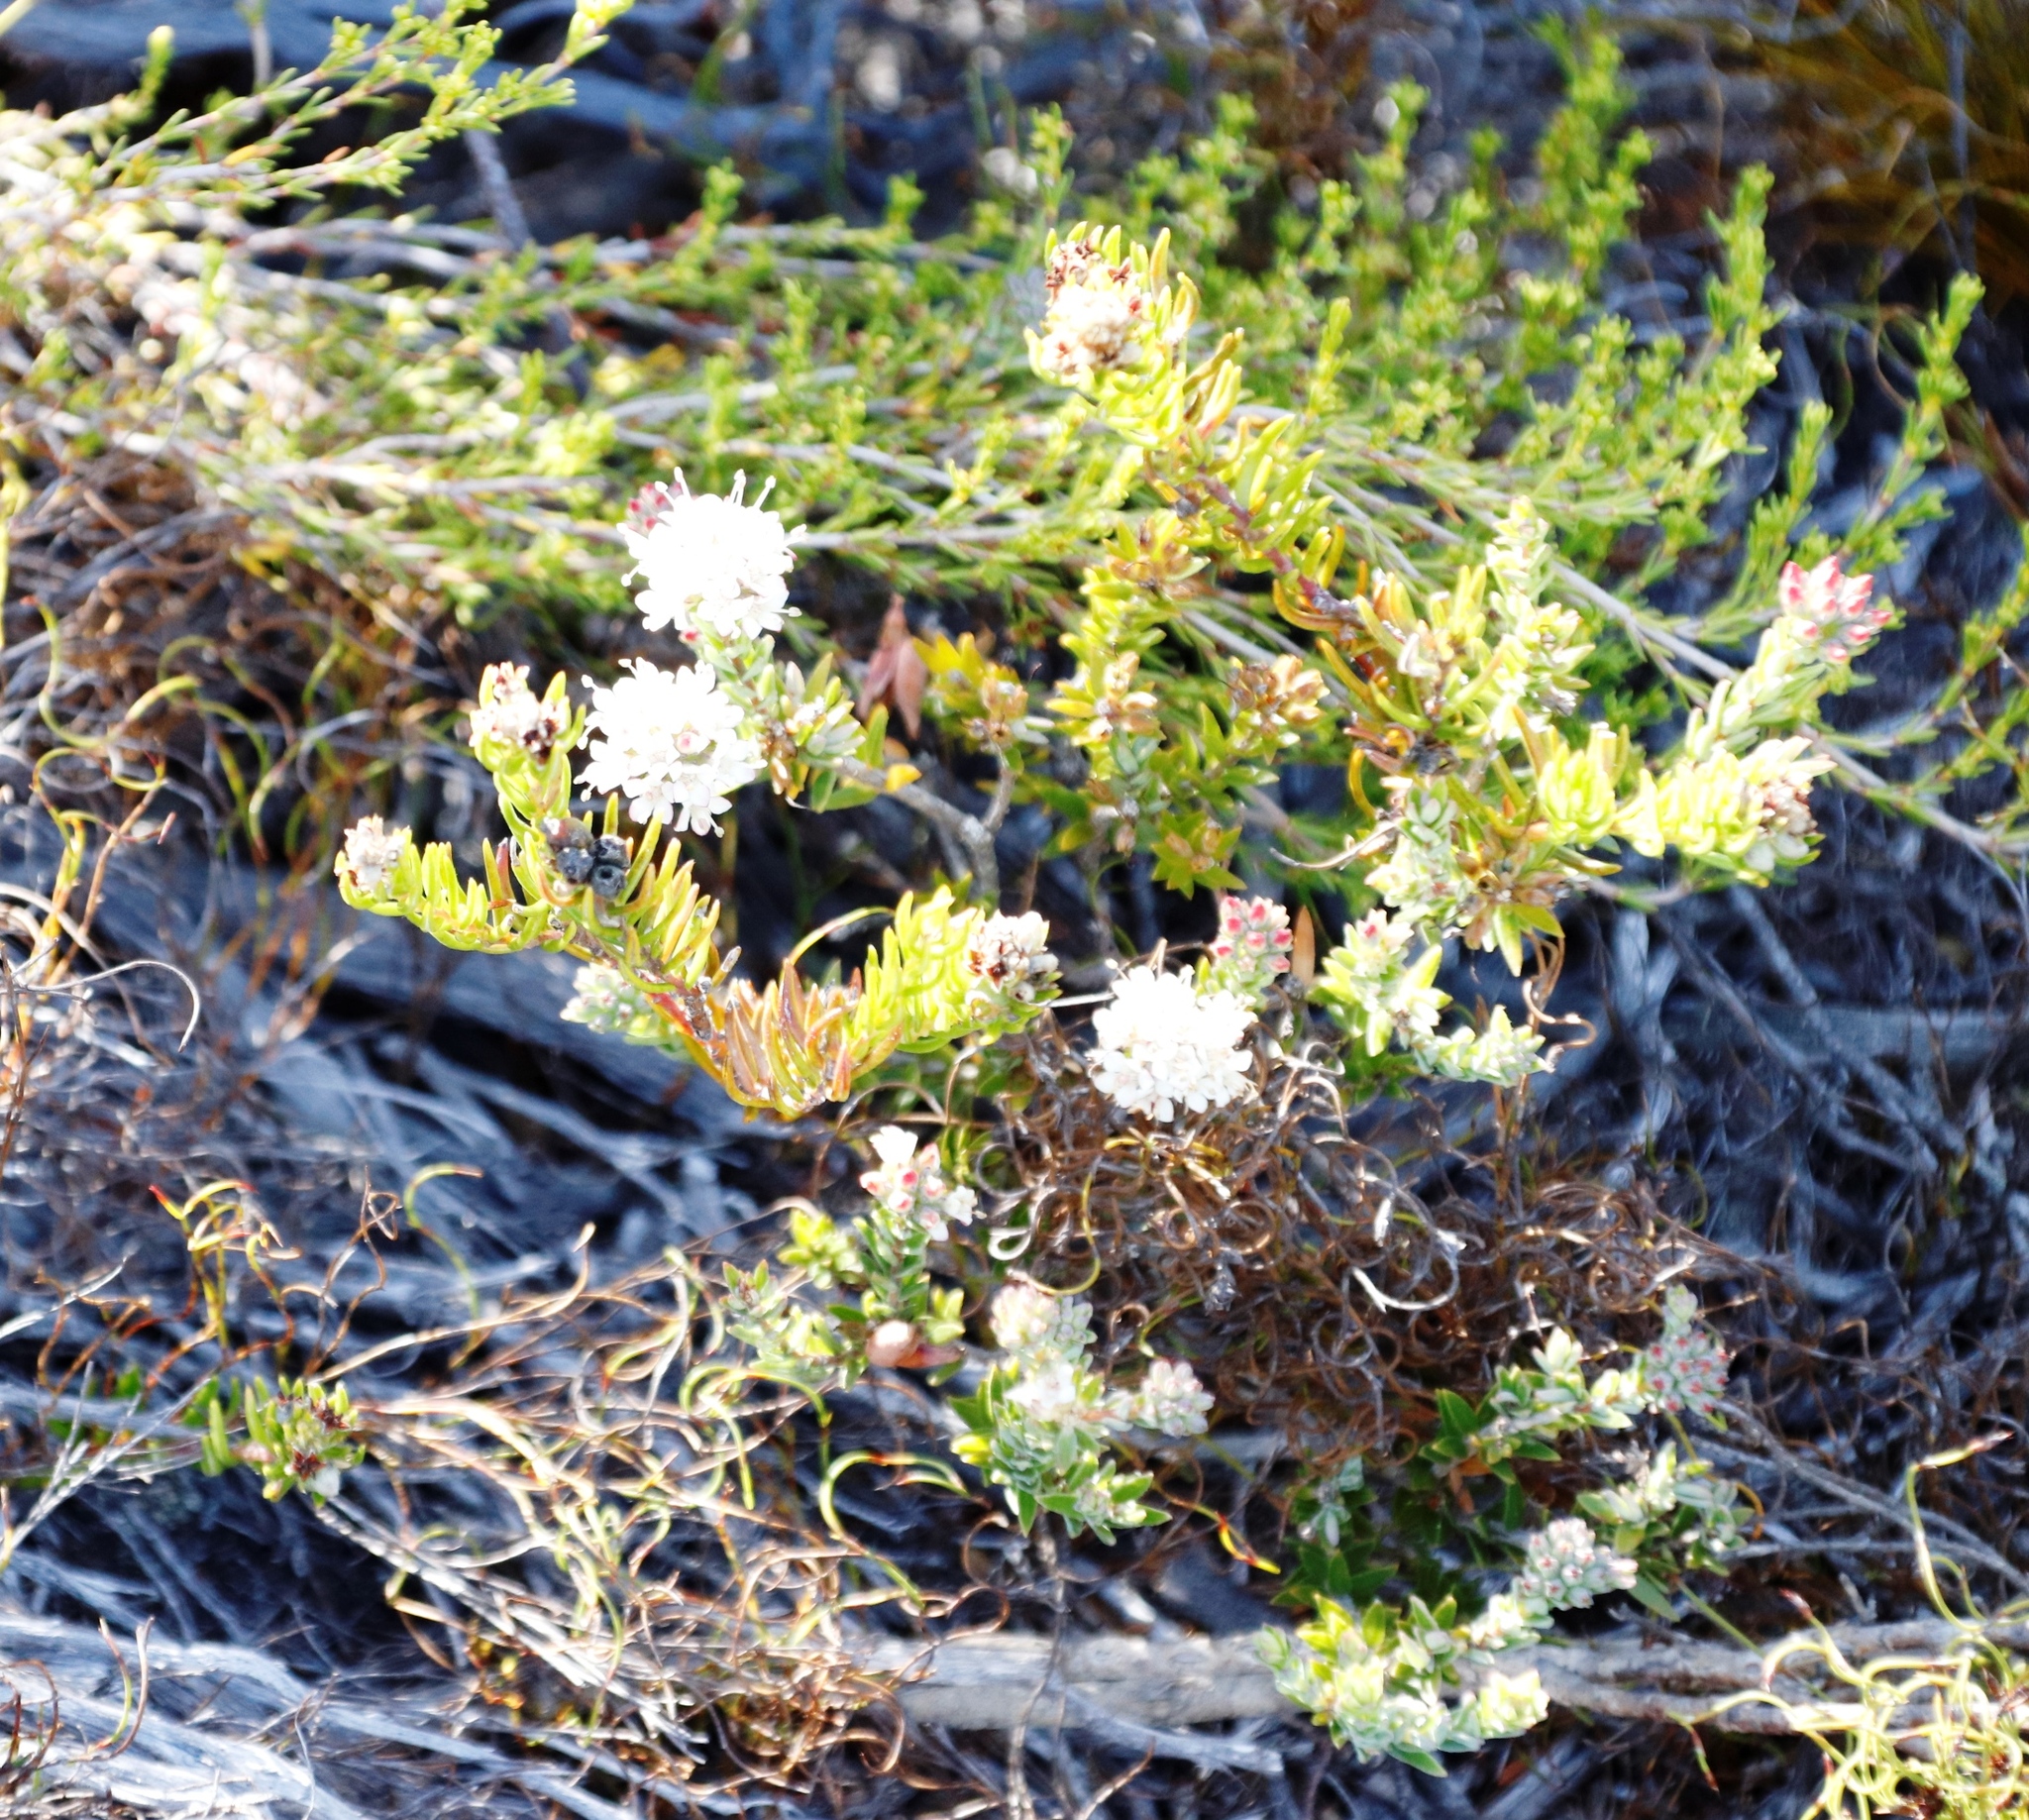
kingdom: Plantae
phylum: Tracheophyta
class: Magnoliopsida
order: Sapindales
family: Rutaceae
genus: Macrostylis
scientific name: Macrostylis villosa
